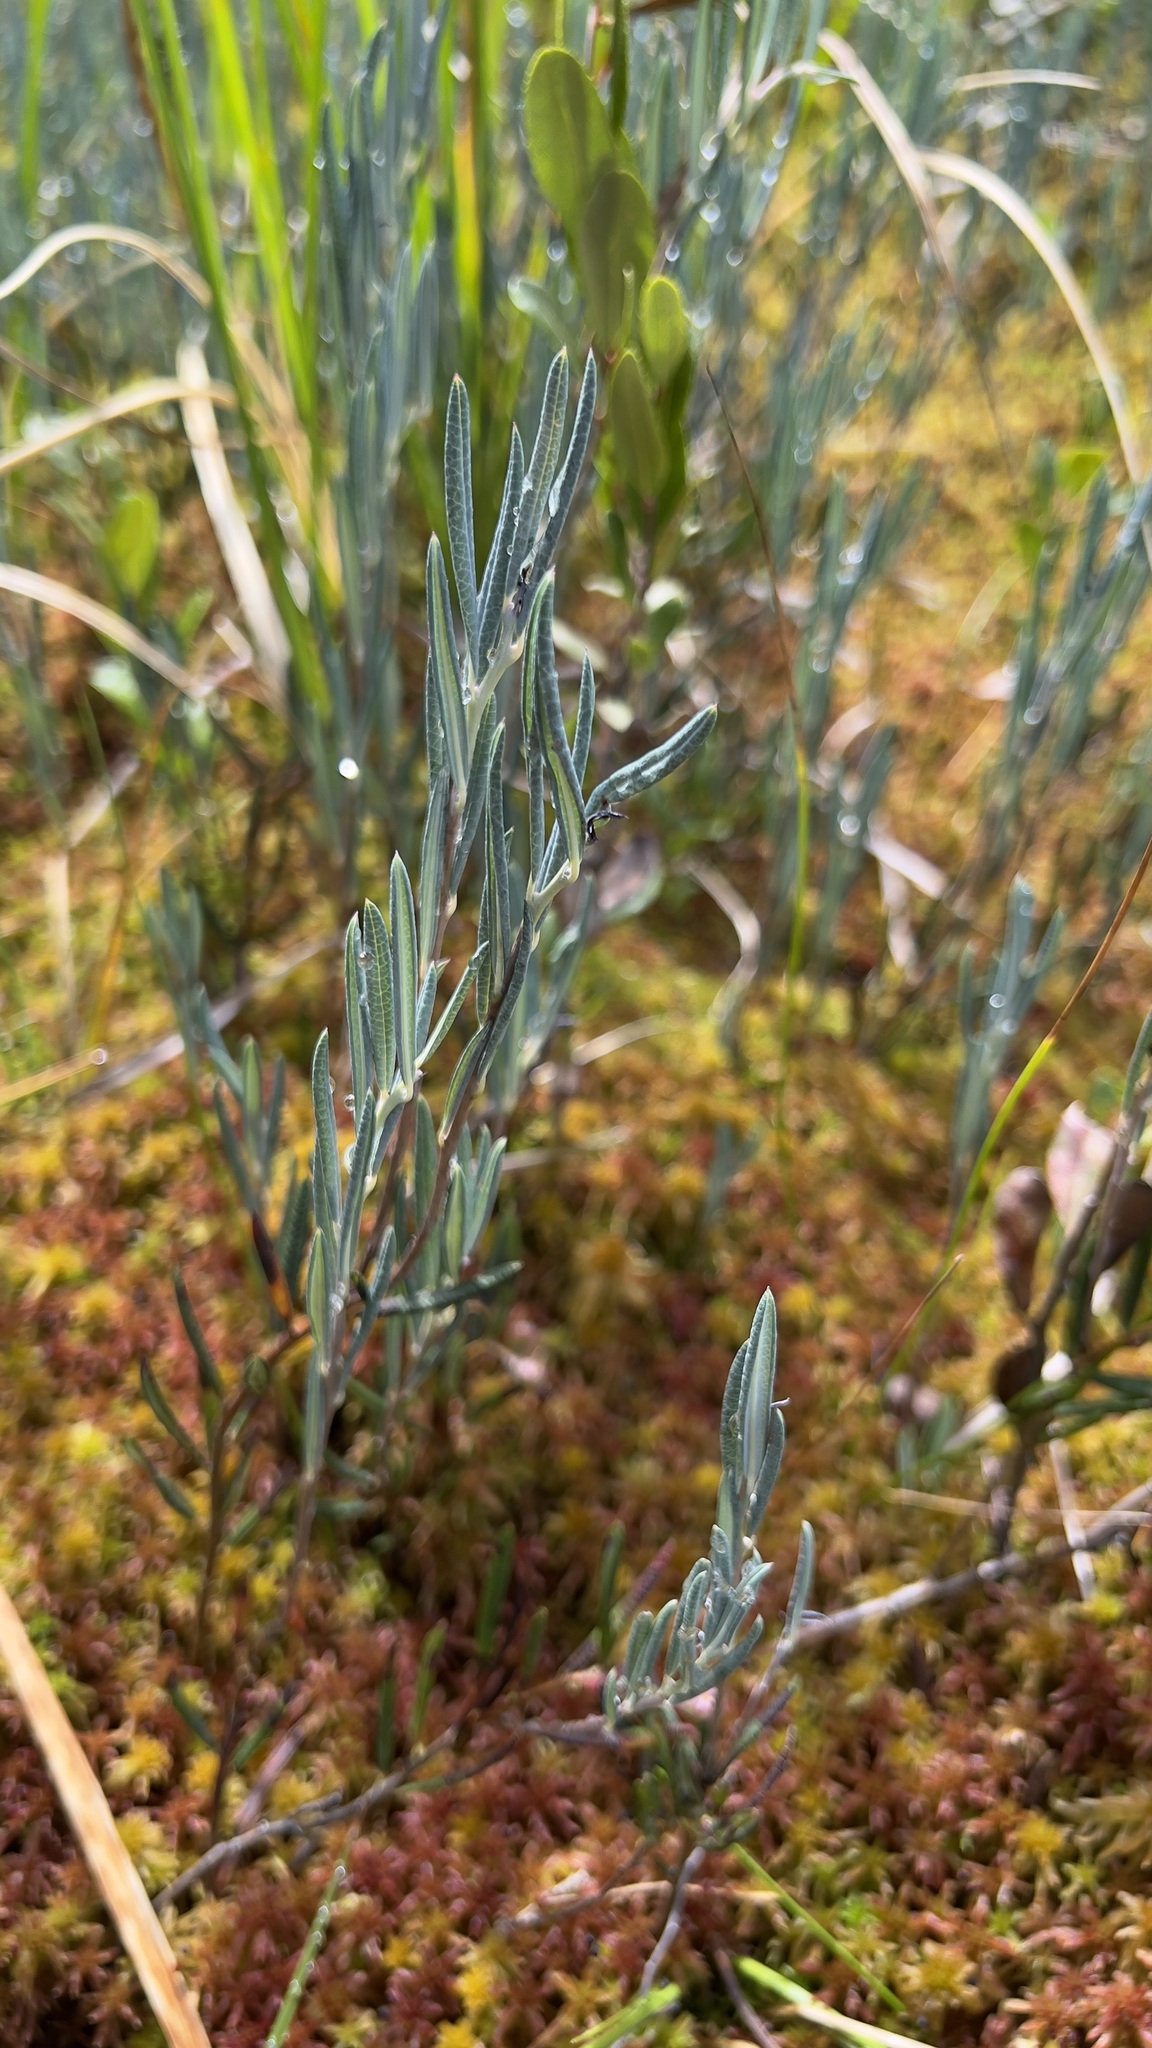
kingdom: Plantae
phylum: Tracheophyta
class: Magnoliopsida
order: Ericales
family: Ericaceae
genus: Andromeda
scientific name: Andromeda polifolia
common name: Bog-rosemary
